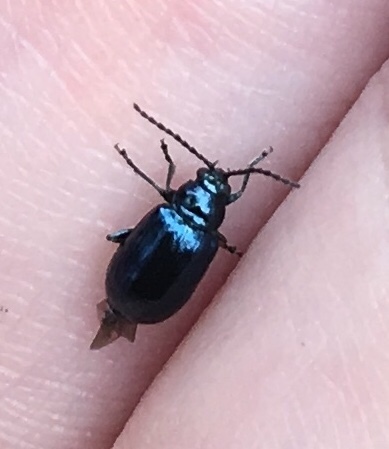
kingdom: Animalia
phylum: Arthropoda
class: Insecta
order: Coleoptera
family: Chrysomelidae
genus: Altica
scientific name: Altica chalybea
